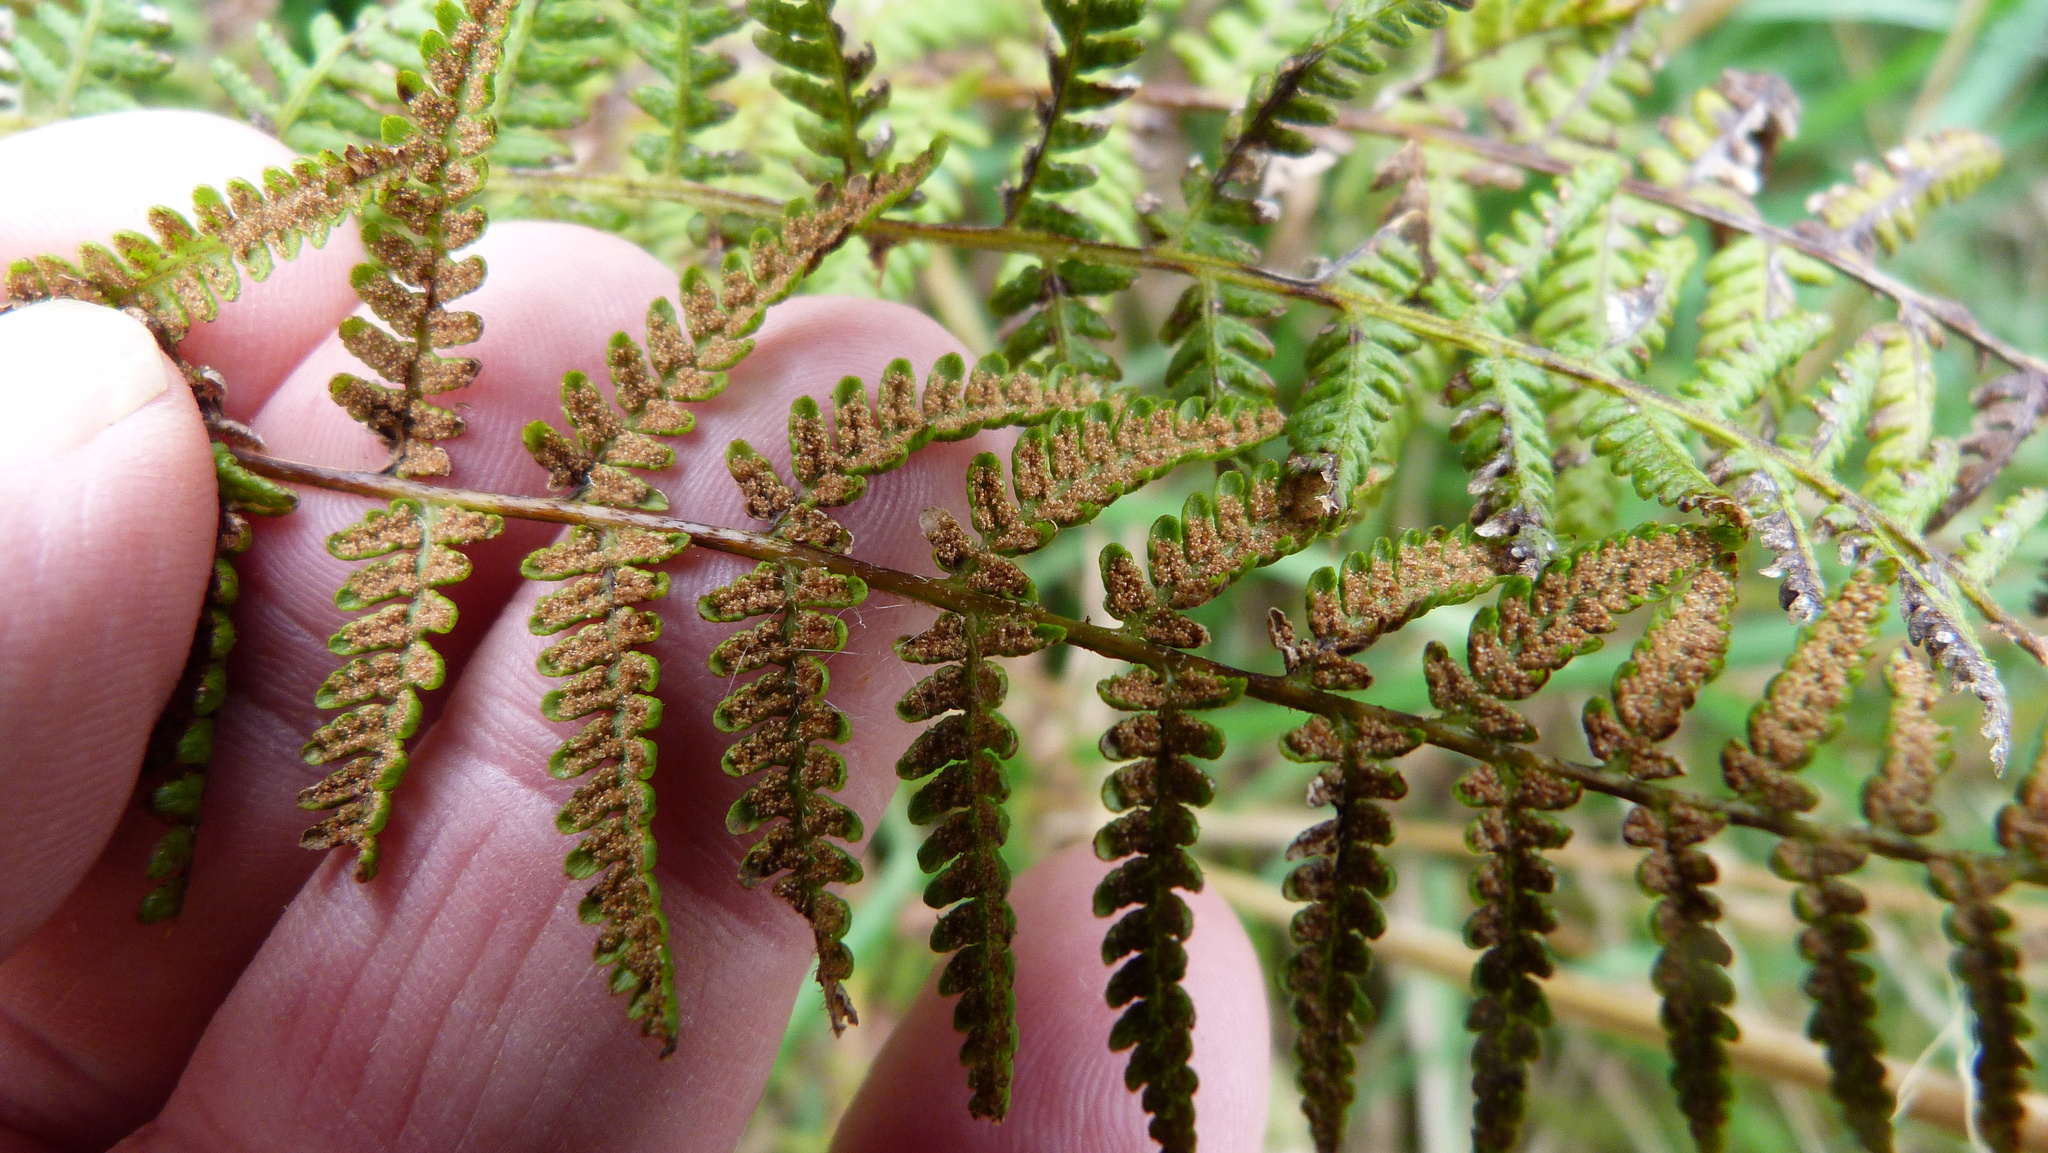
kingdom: Plantae
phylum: Tracheophyta
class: Polypodiopsida
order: Polypodiales
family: Dennstaedtiaceae
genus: Hypolepis
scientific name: Hypolepis ambigua
